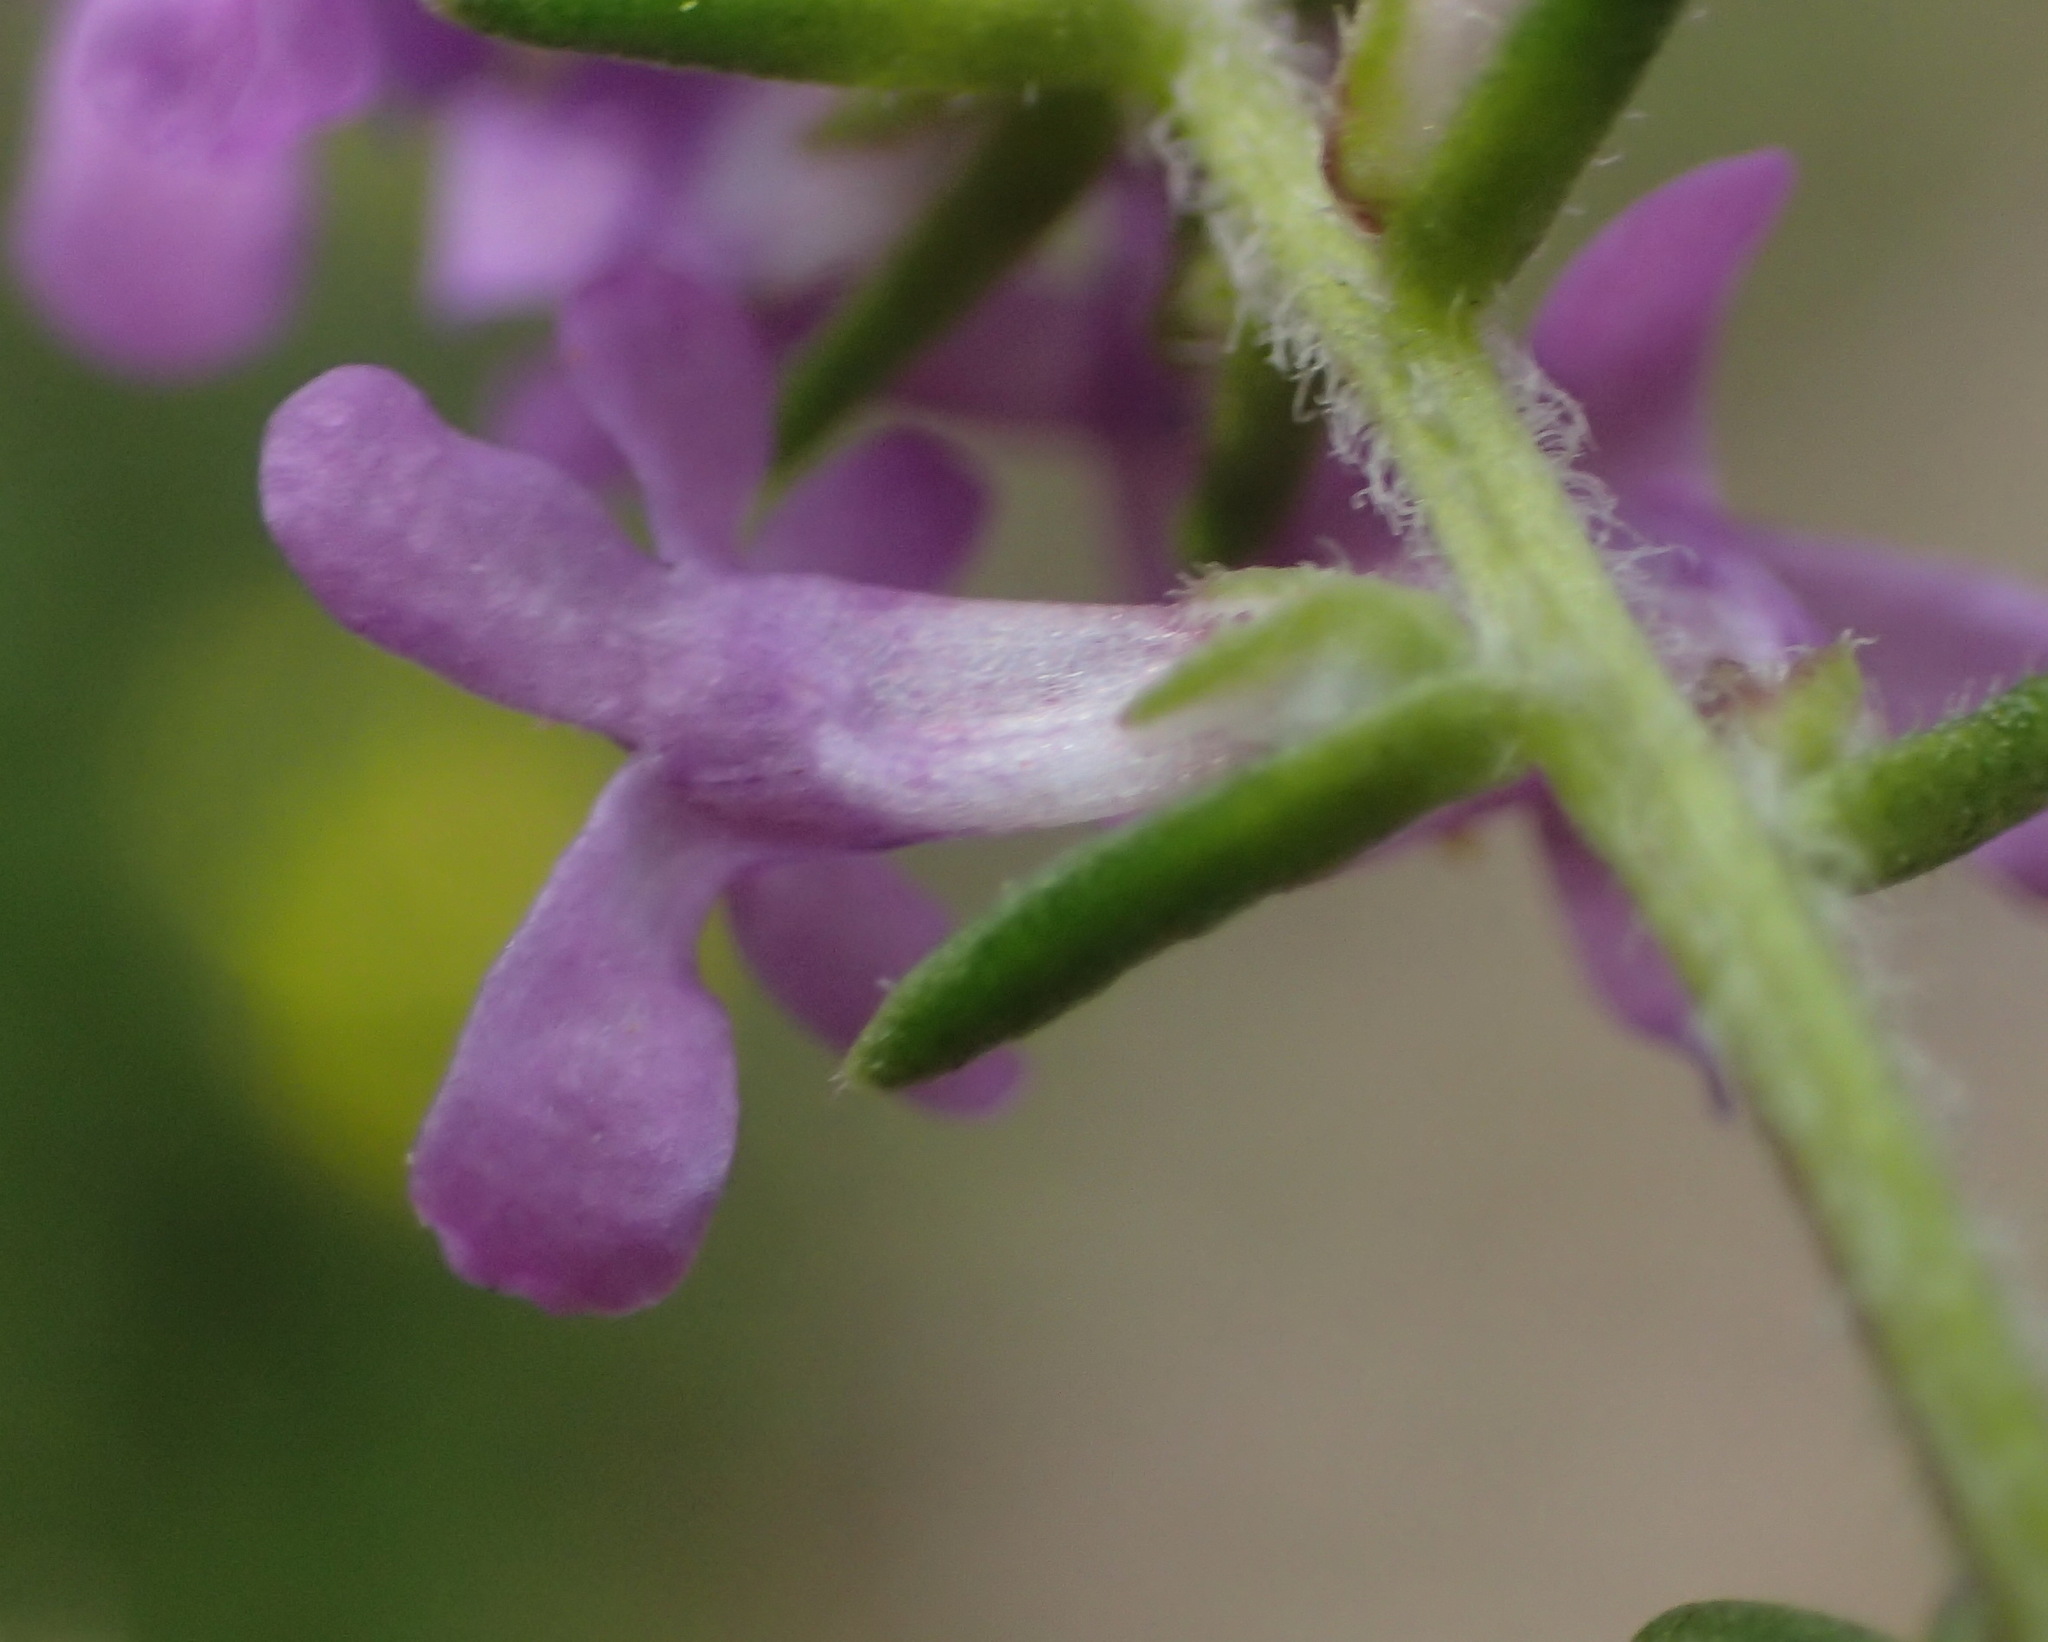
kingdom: Plantae
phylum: Tracheophyta
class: Magnoliopsida
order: Lamiales
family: Scrophulariaceae
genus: Selago
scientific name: Selago villicaulis
